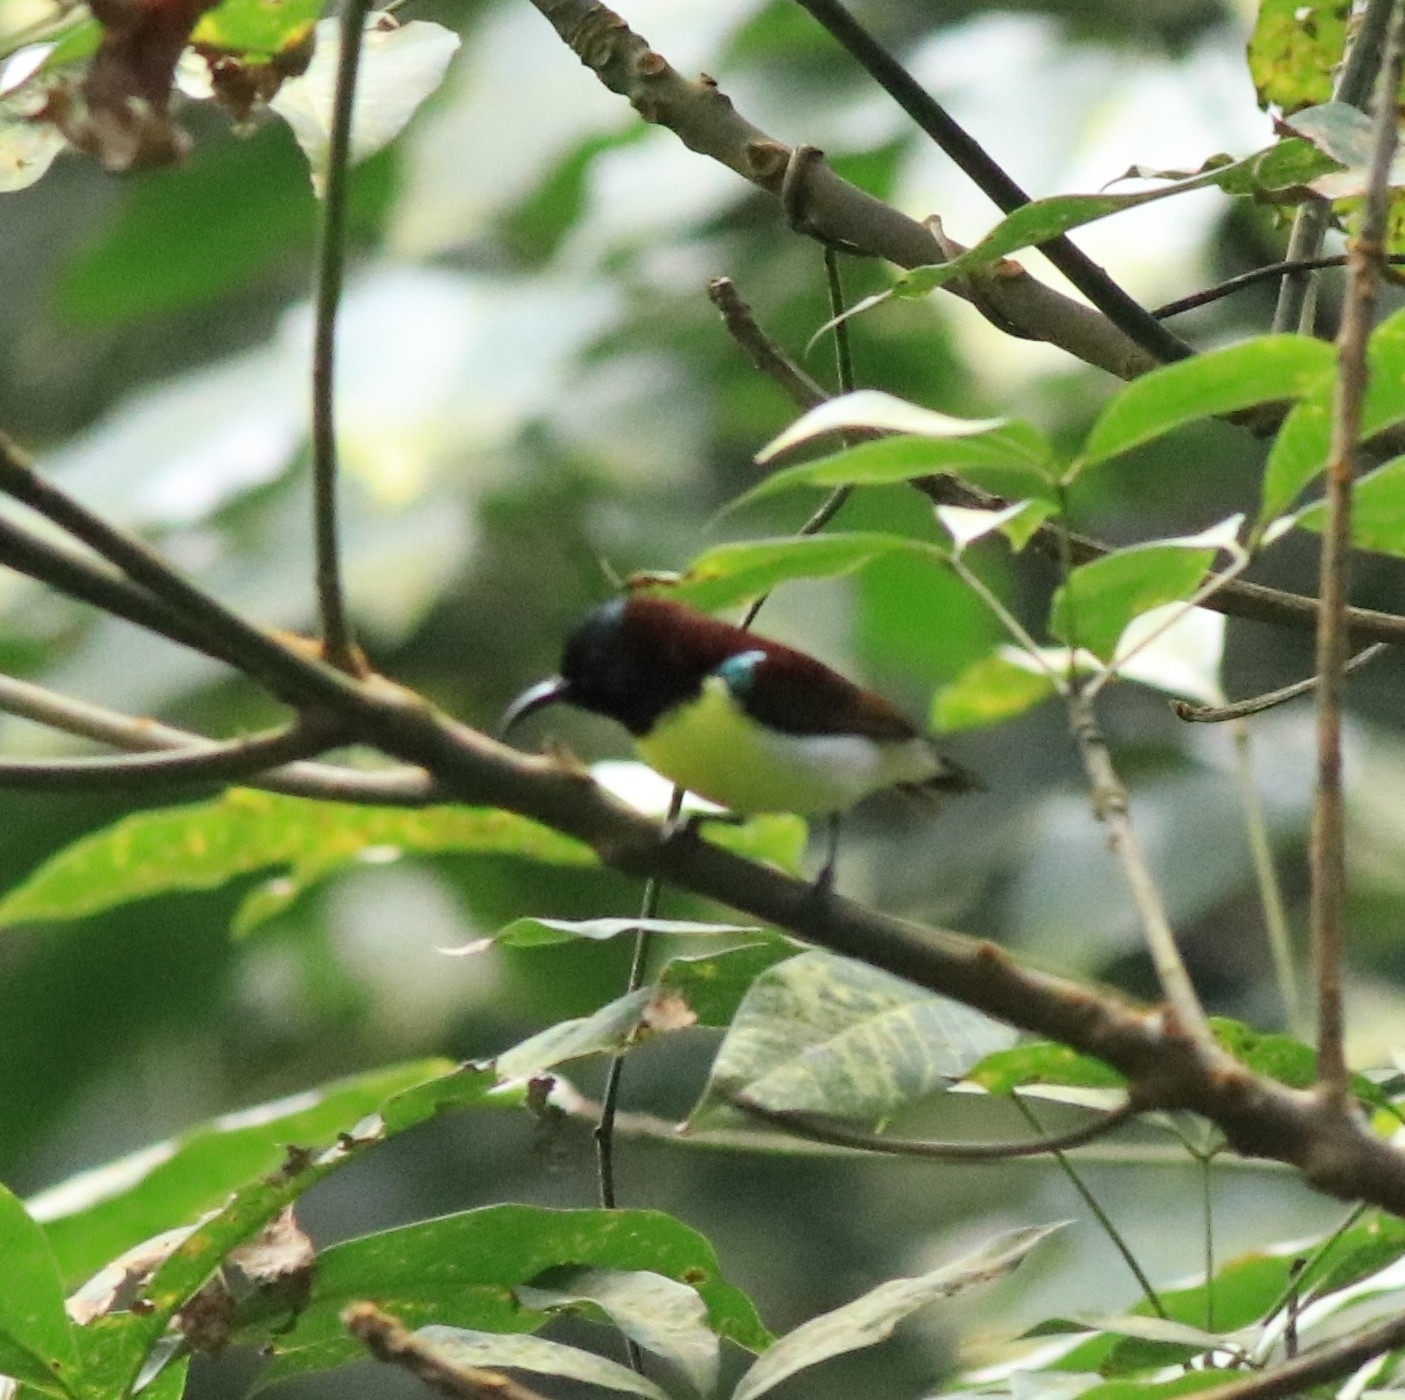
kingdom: Animalia
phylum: Chordata
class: Aves
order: Passeriformes
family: Nectariniidae
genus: Leptocoma
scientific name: Leptocoma zeylonica
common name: Purple-rumped sunbird
